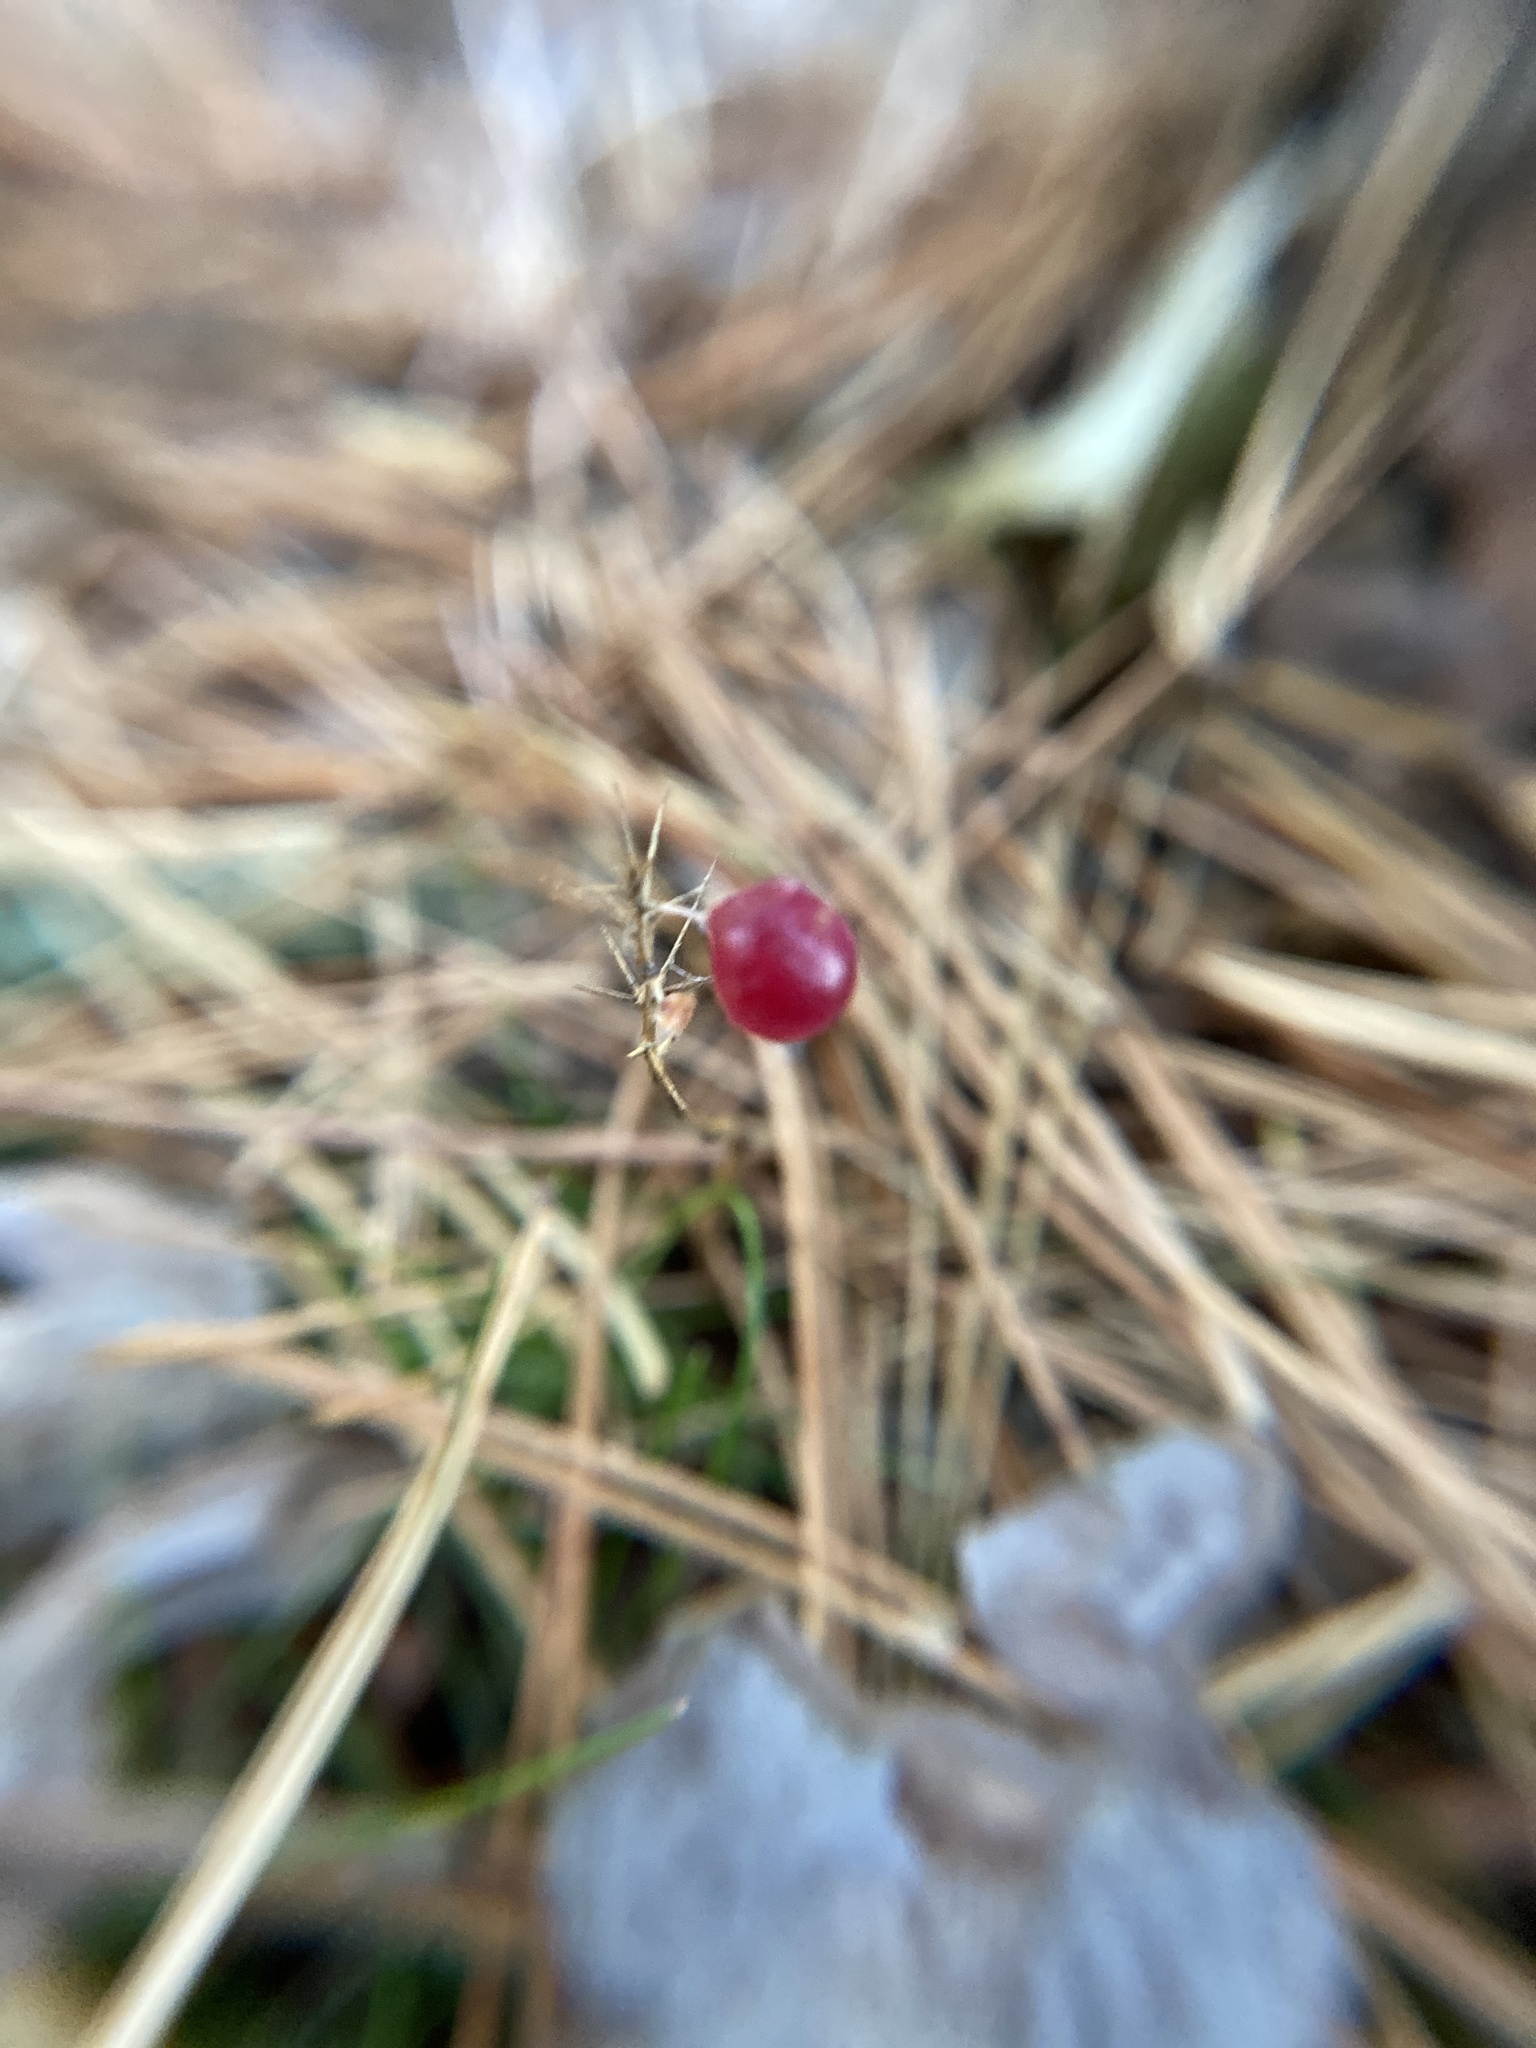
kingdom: Plantae
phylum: Tracheophyta
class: Liliopsida
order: Asparagales
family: Asparagaceae
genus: Maianthemum
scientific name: Maianthemum canadense
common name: False lily-of-the-valley
